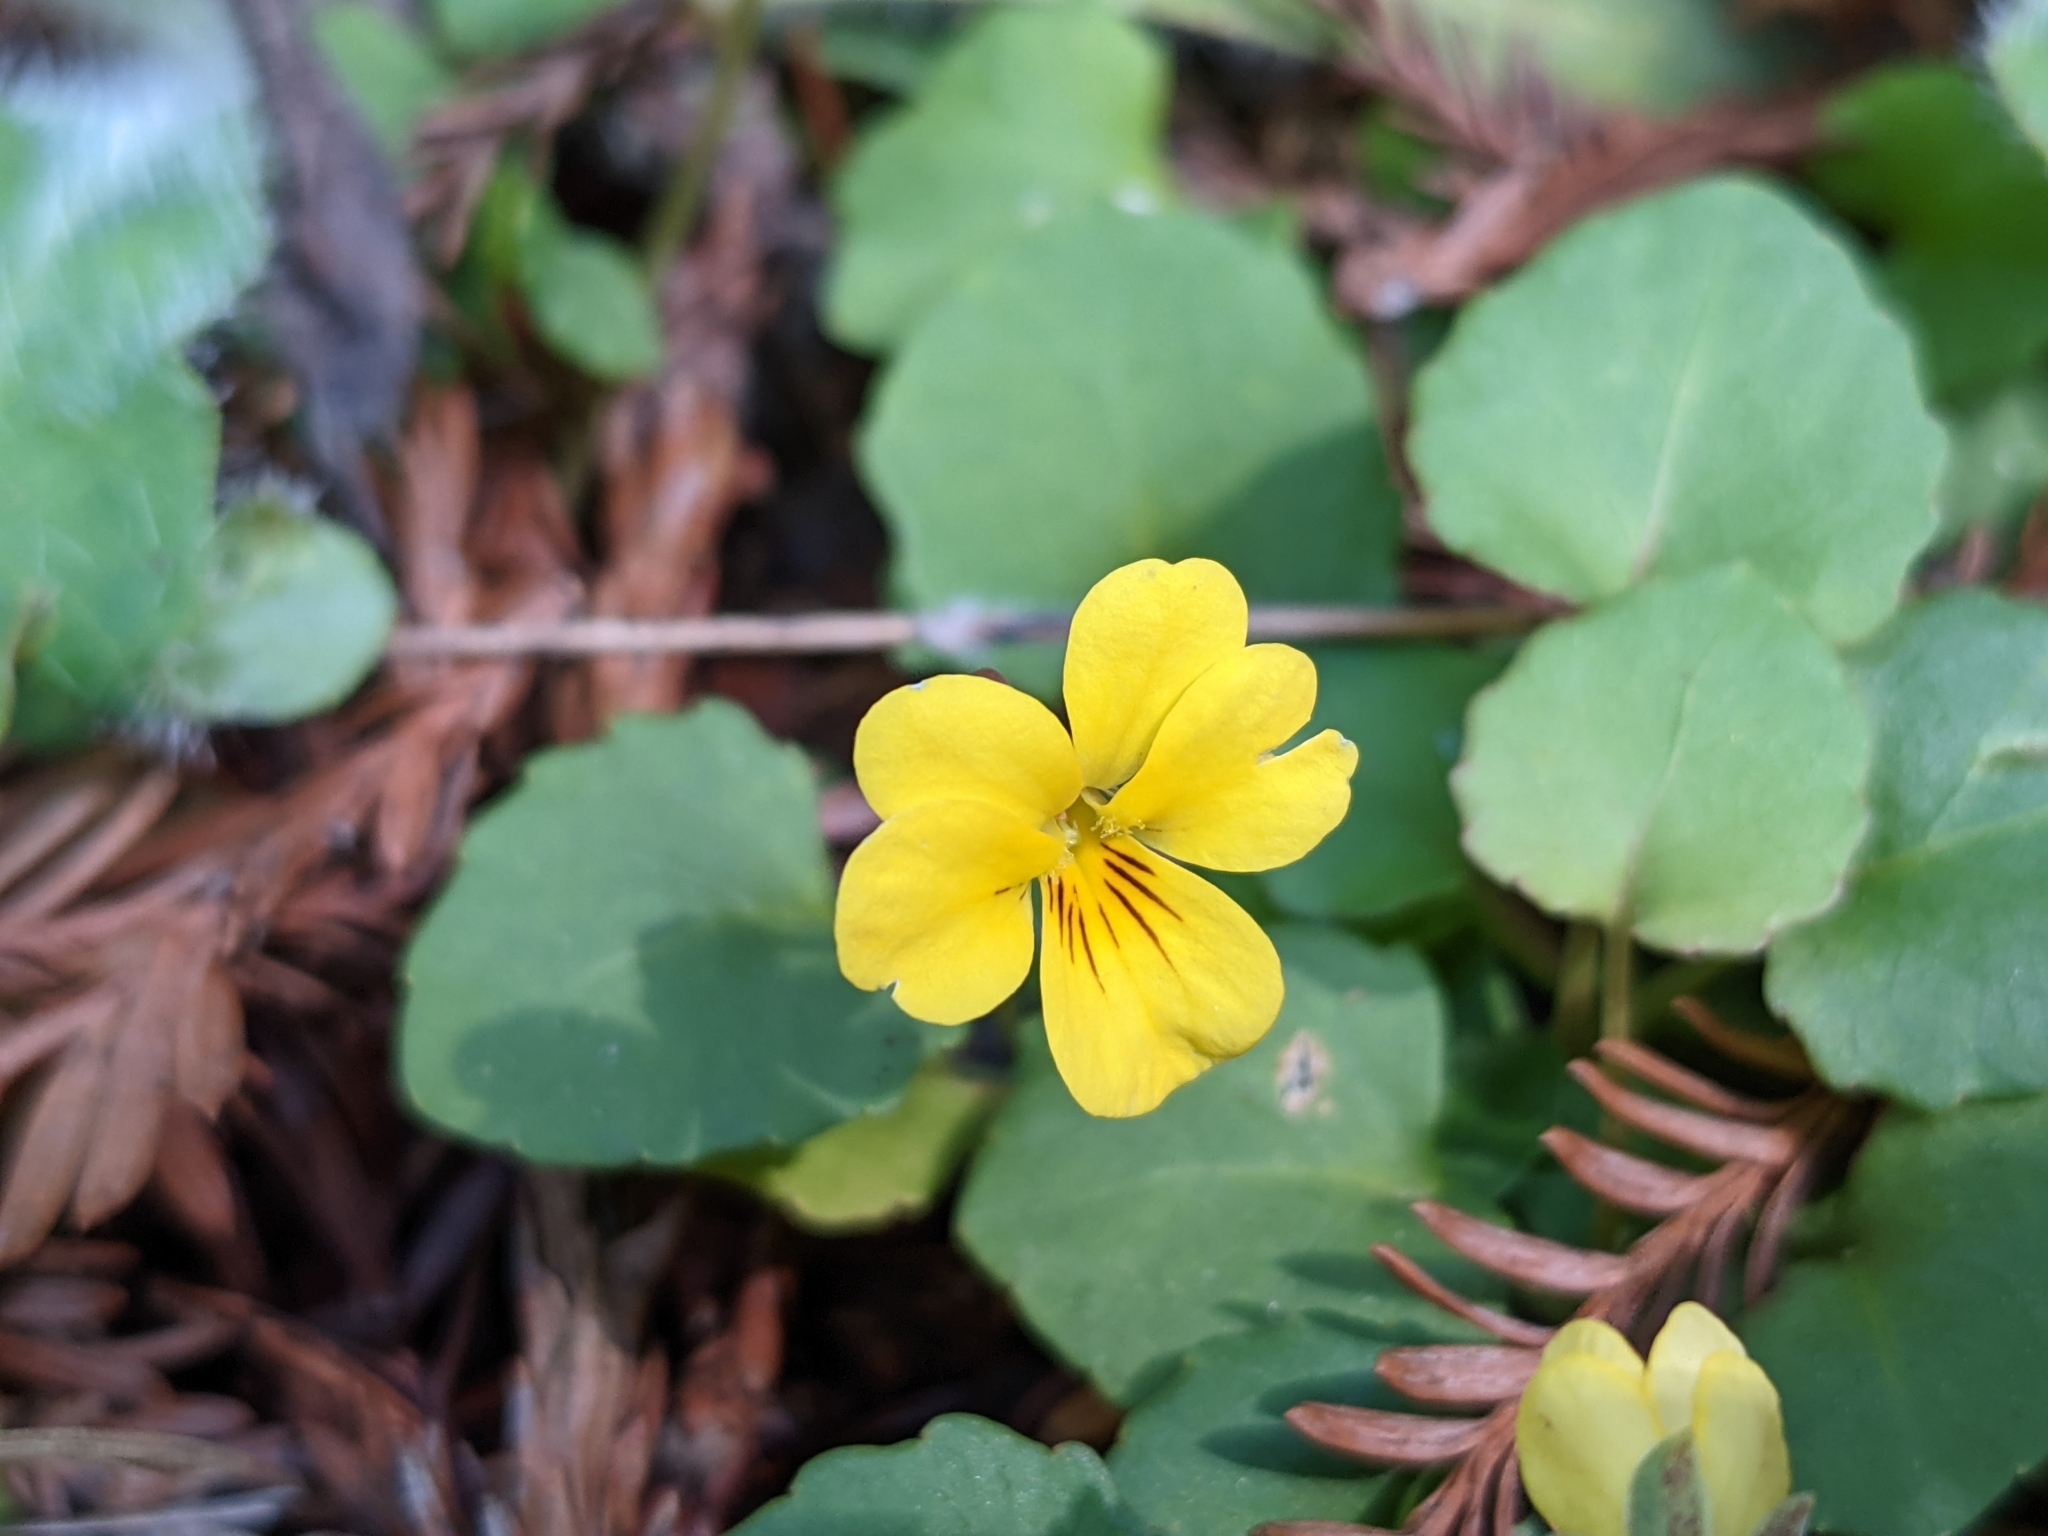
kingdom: Plantae
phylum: Tracheophyta
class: Magnoliopsida
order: Malpighiales
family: Violaceae
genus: Viola
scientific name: Viola sempervirens
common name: Evergreen violet
